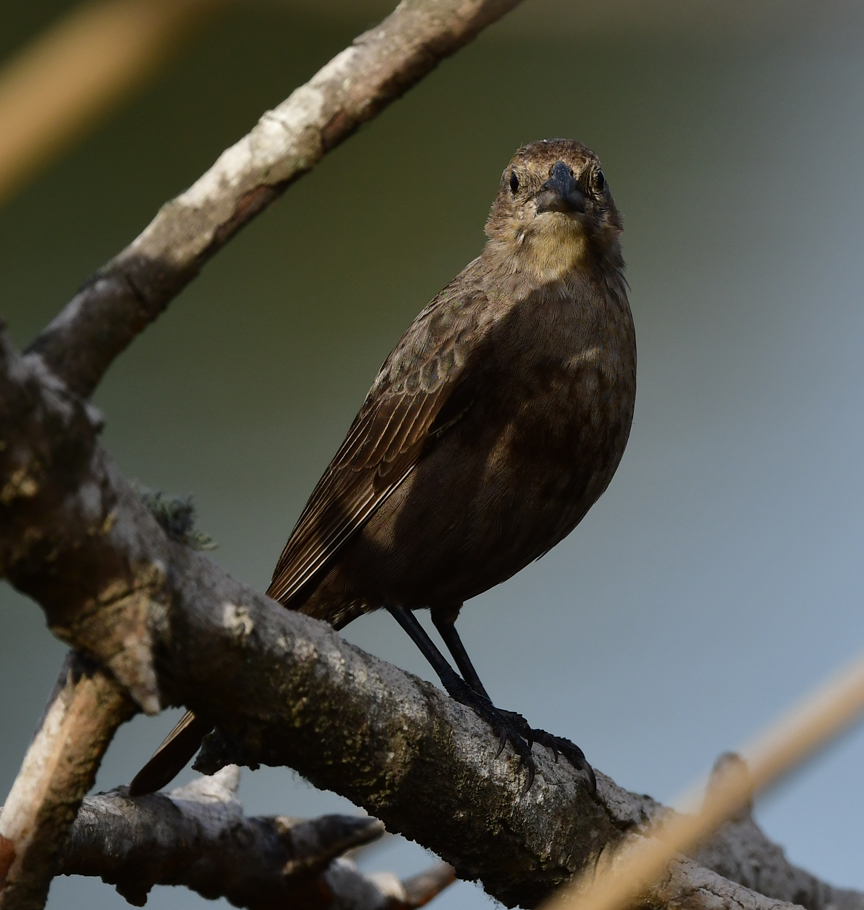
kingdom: Animalia
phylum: Chordata
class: Aves
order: Passeriformes
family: Icteridae
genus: Molothrus
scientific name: Molothrus ater
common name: Brown-headed cowbird
